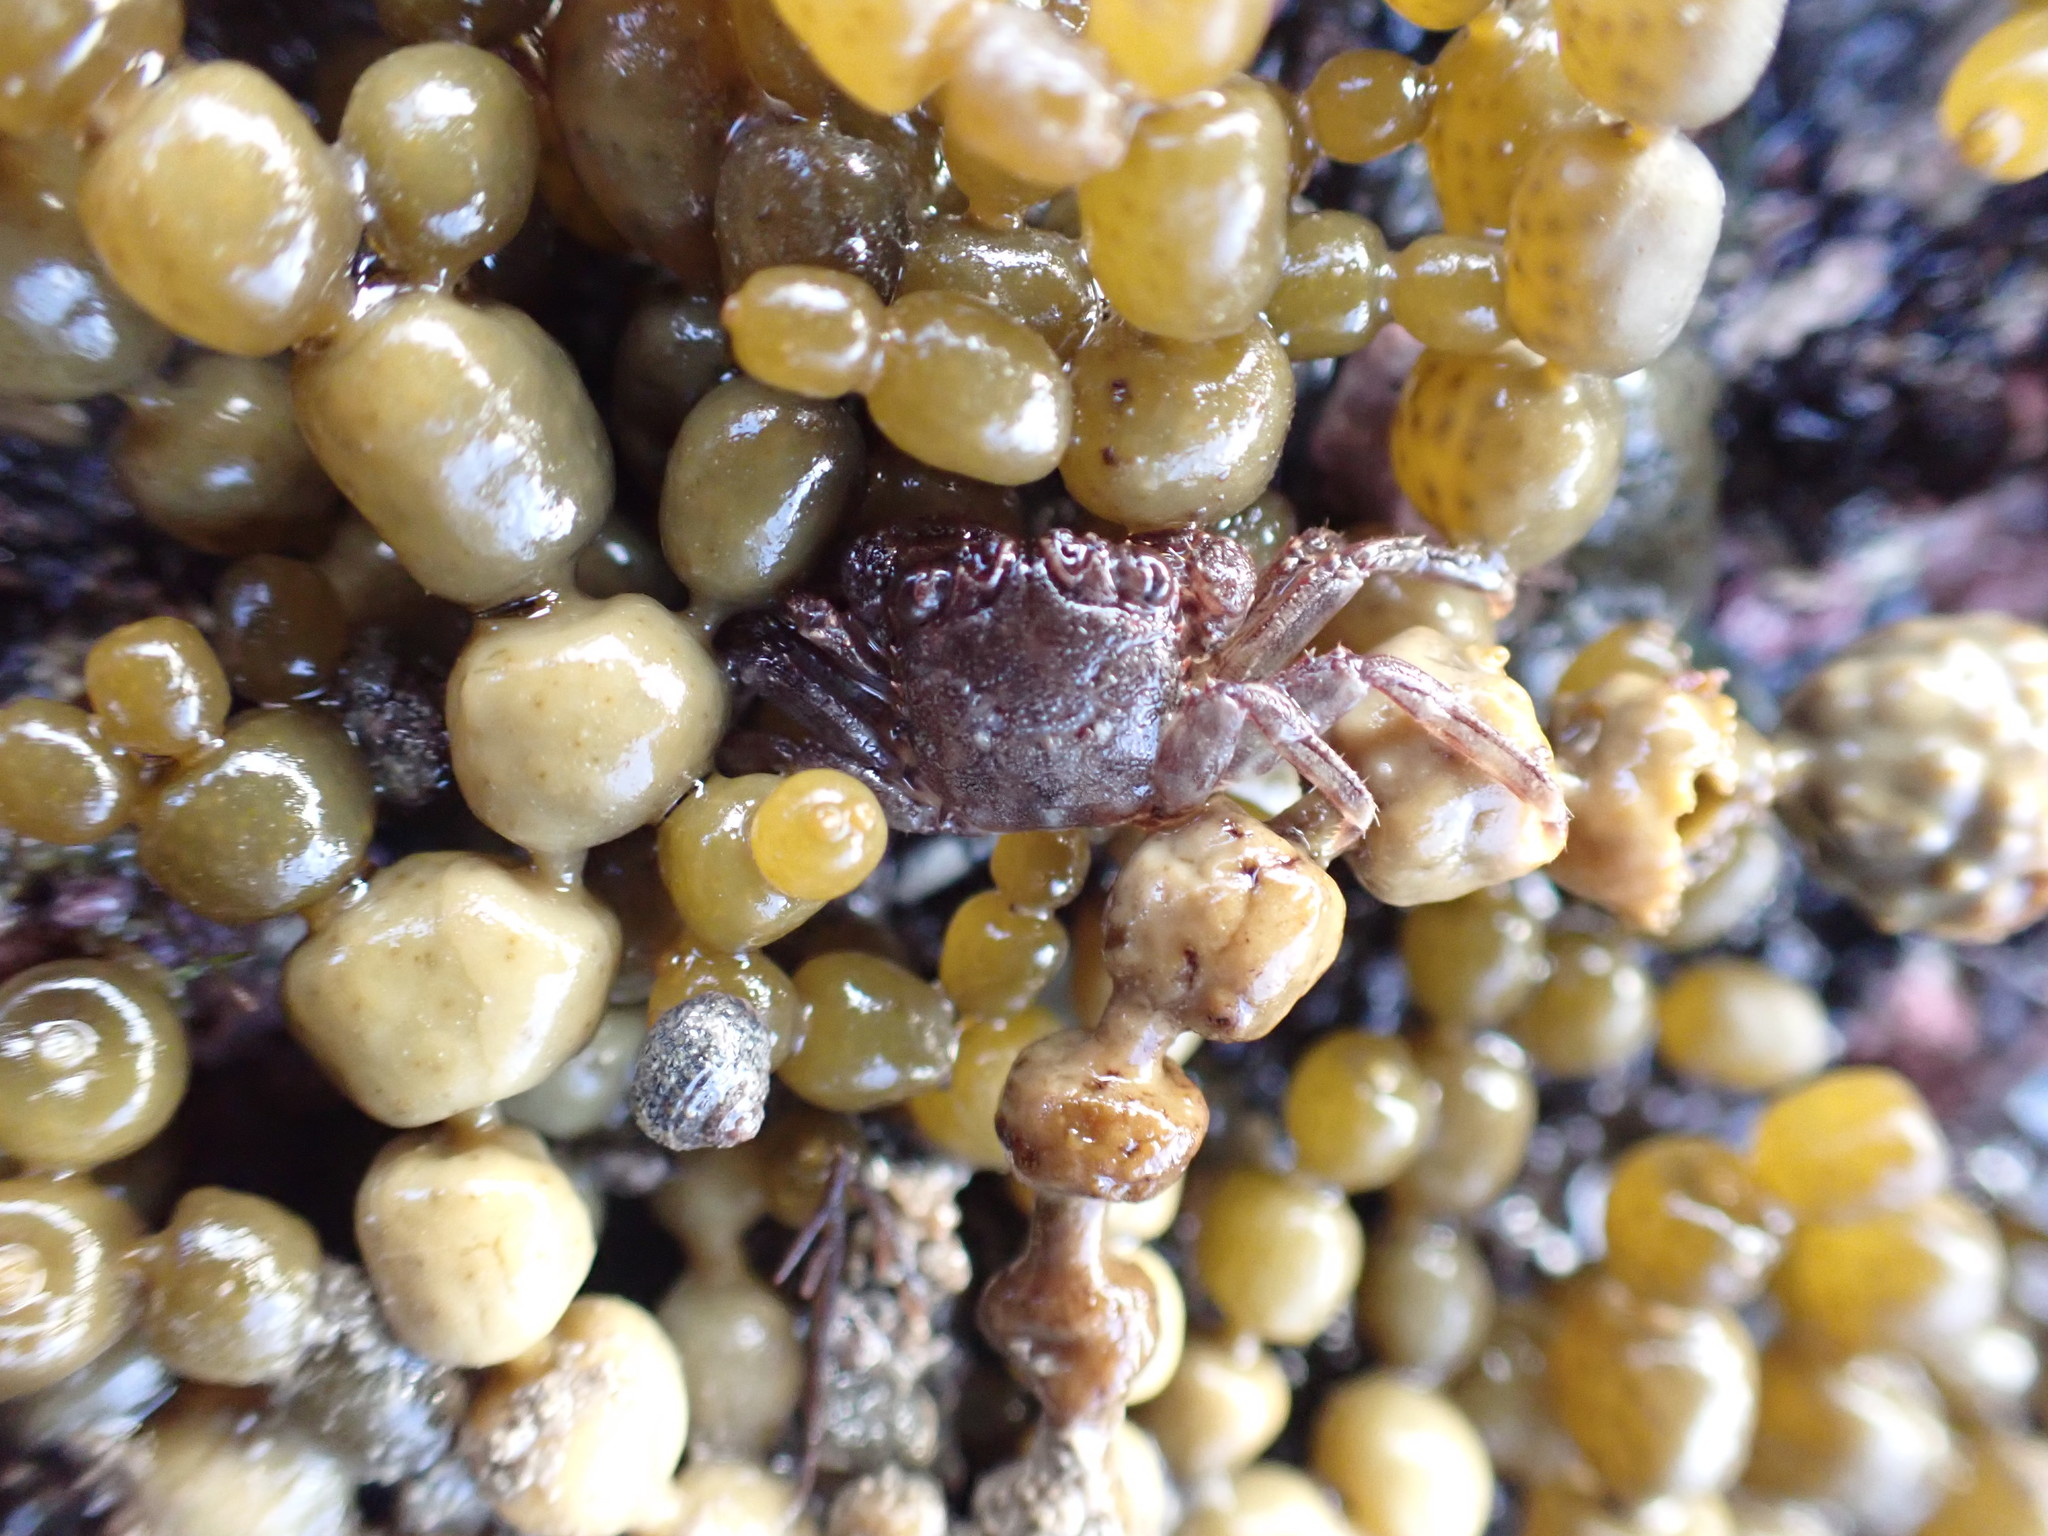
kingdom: Animalia
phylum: Arthropoda
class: Malacostraca
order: Decapoda
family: Plagusiidae
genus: Guinusia
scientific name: Guinusia chabrus
